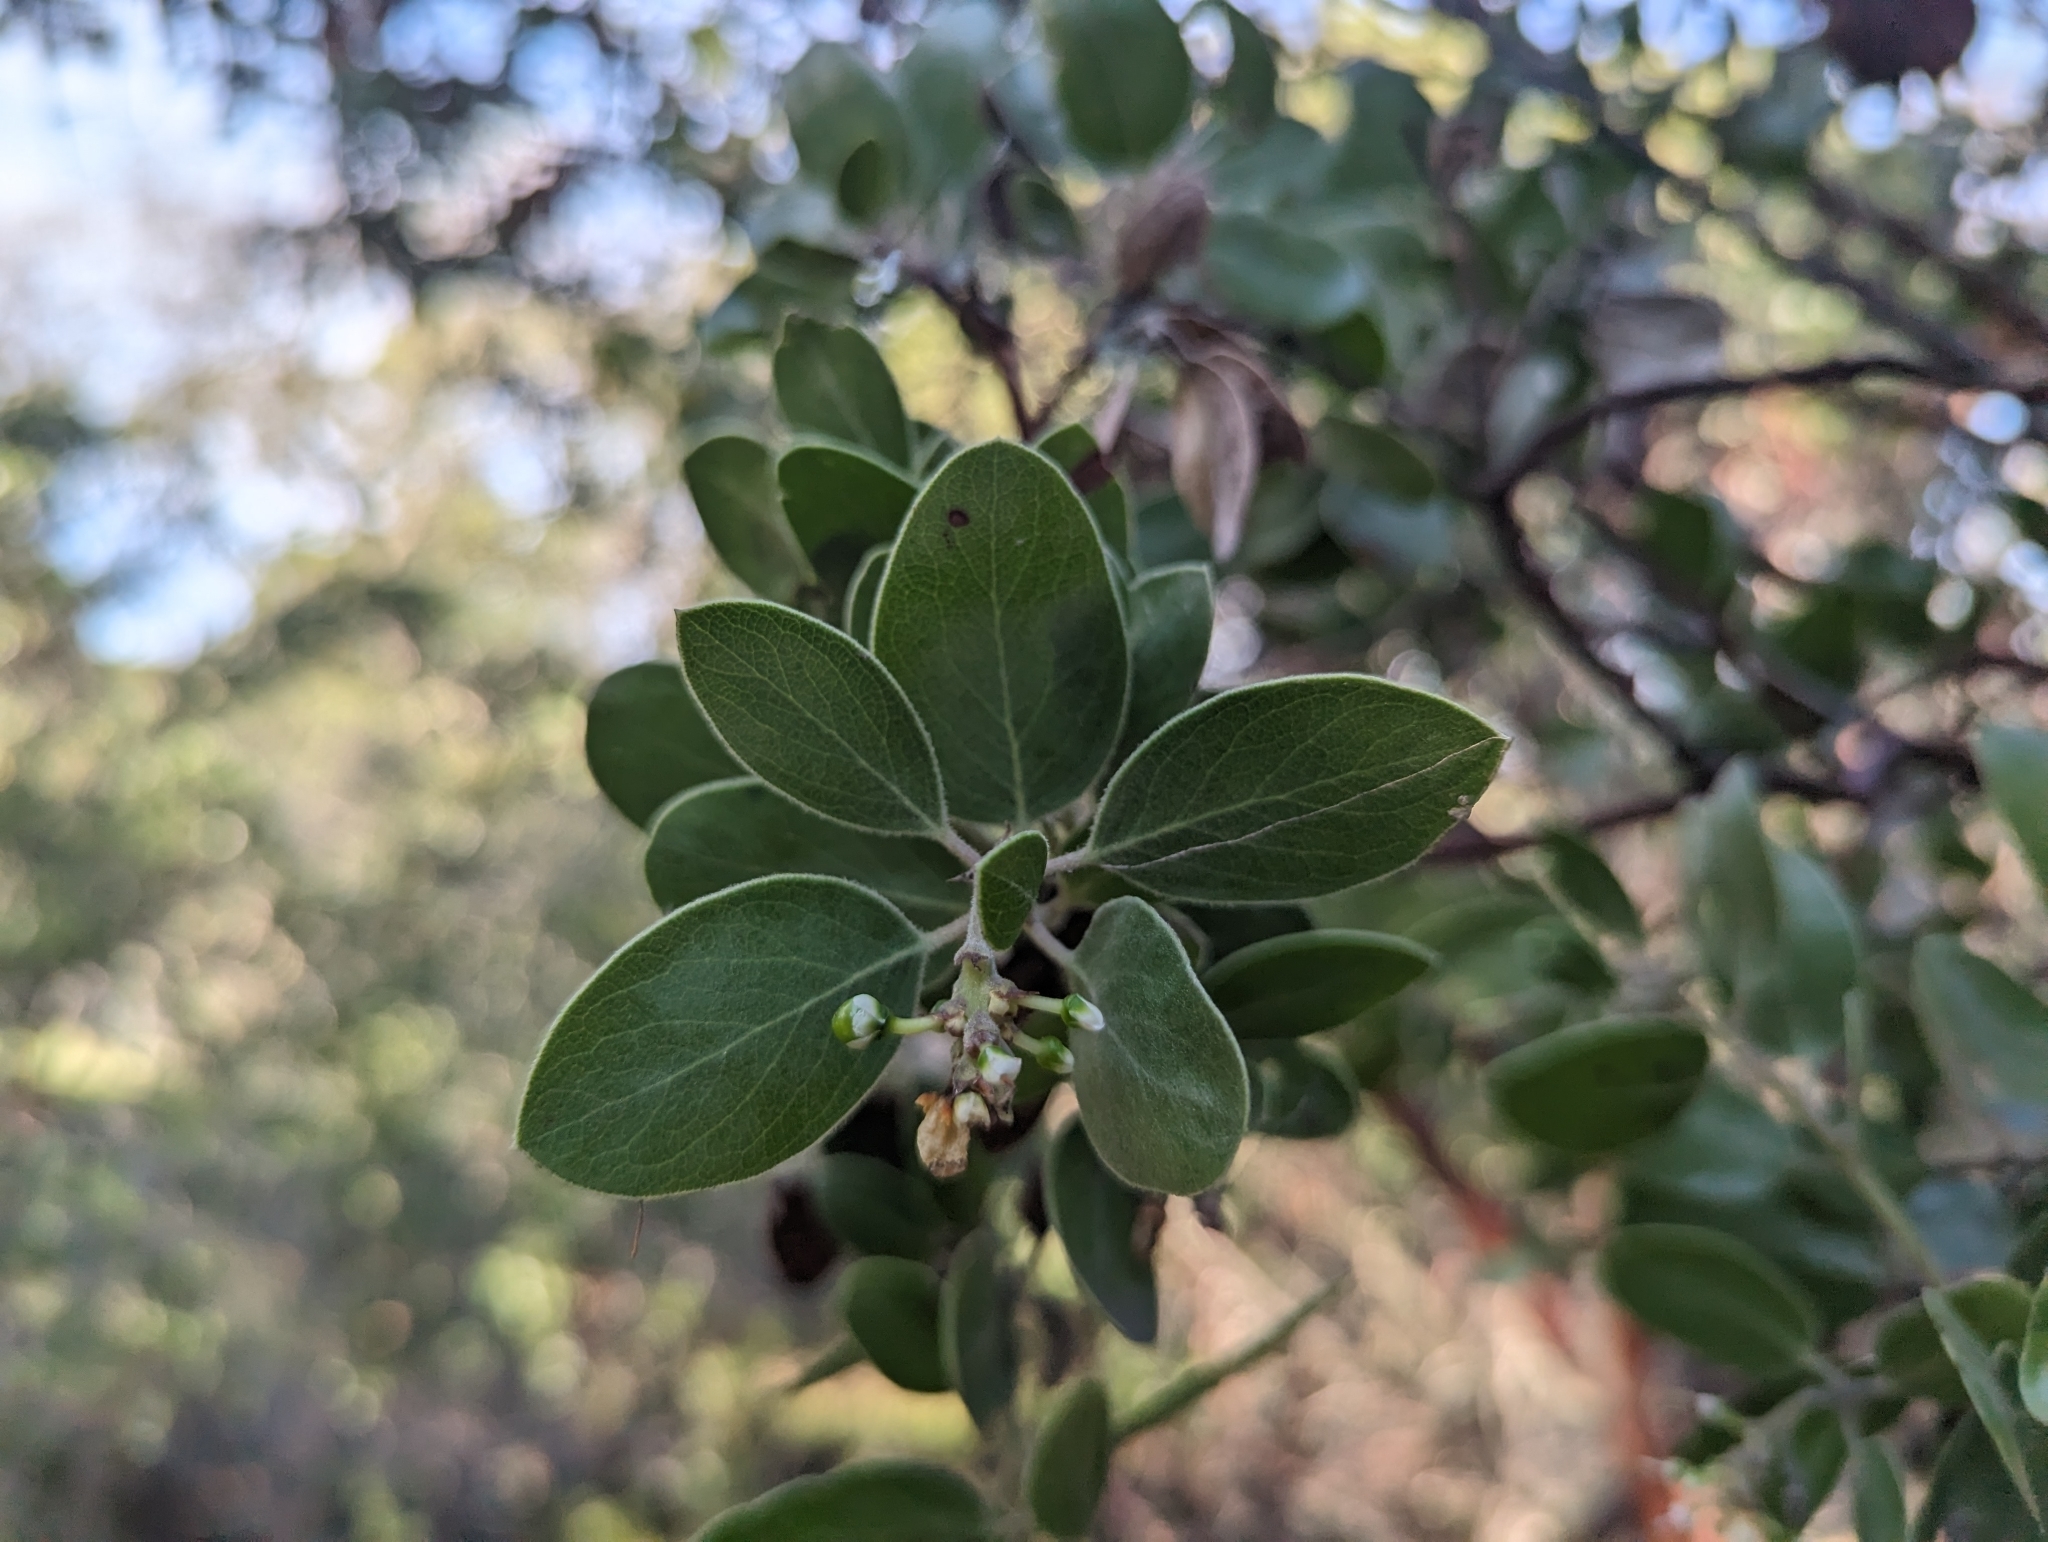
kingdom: Plantae
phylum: Tracheophyta
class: Magnoliopsida
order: Ericales
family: Ericaceae
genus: Arctostaphylos
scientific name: Arctostaphylos manzanita
